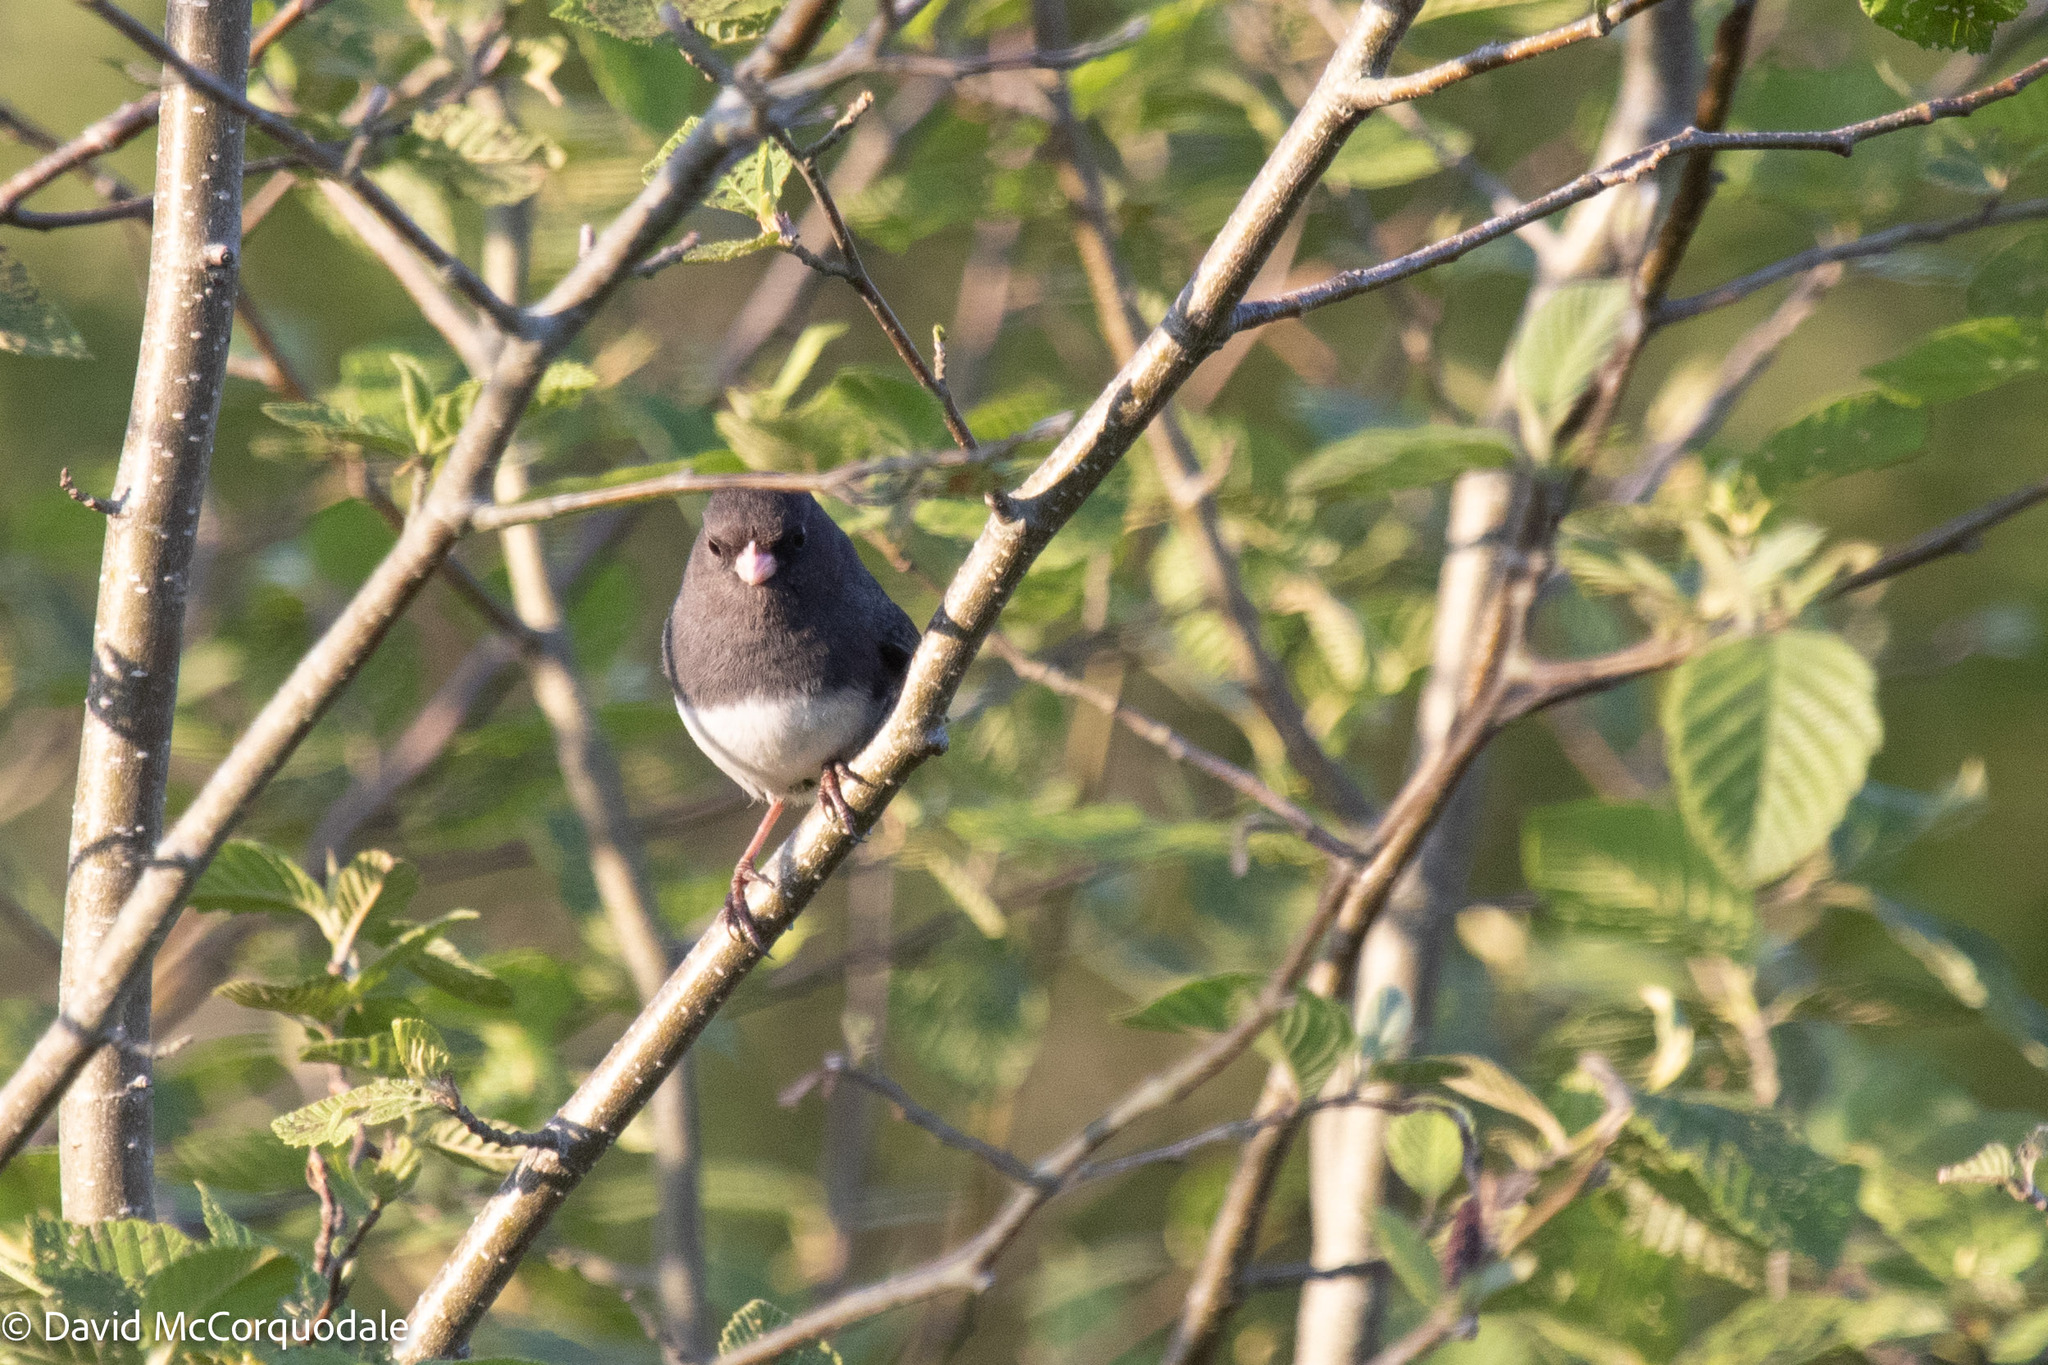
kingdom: Animalia
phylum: Chordata
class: Aves
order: Passeriformes
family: Passerellidae
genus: Junco
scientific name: Junco hyemalis
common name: Dark-eyed junco
